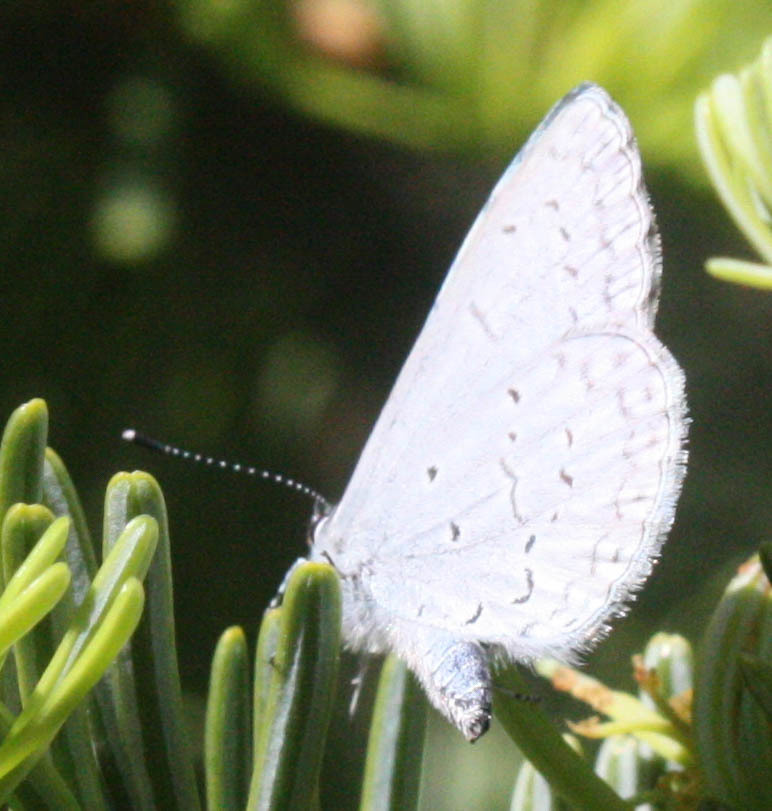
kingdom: Animalia
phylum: Arthropoda
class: Insecta
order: Lepidoptera
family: Lycaenidae
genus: Celastrina
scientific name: Celastrina ladon
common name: Spring azure
